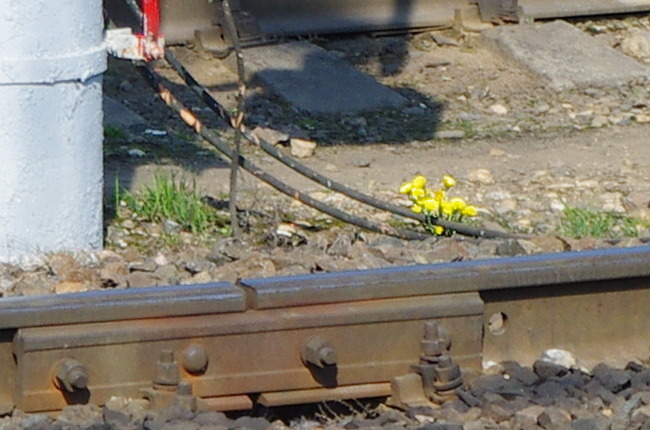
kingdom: Plantae
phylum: Tracheophyta
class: Magnoliopsida
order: Asterales
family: Asteraceae
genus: Tussilago
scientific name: Tussilago farfara
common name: Coltsfoot
